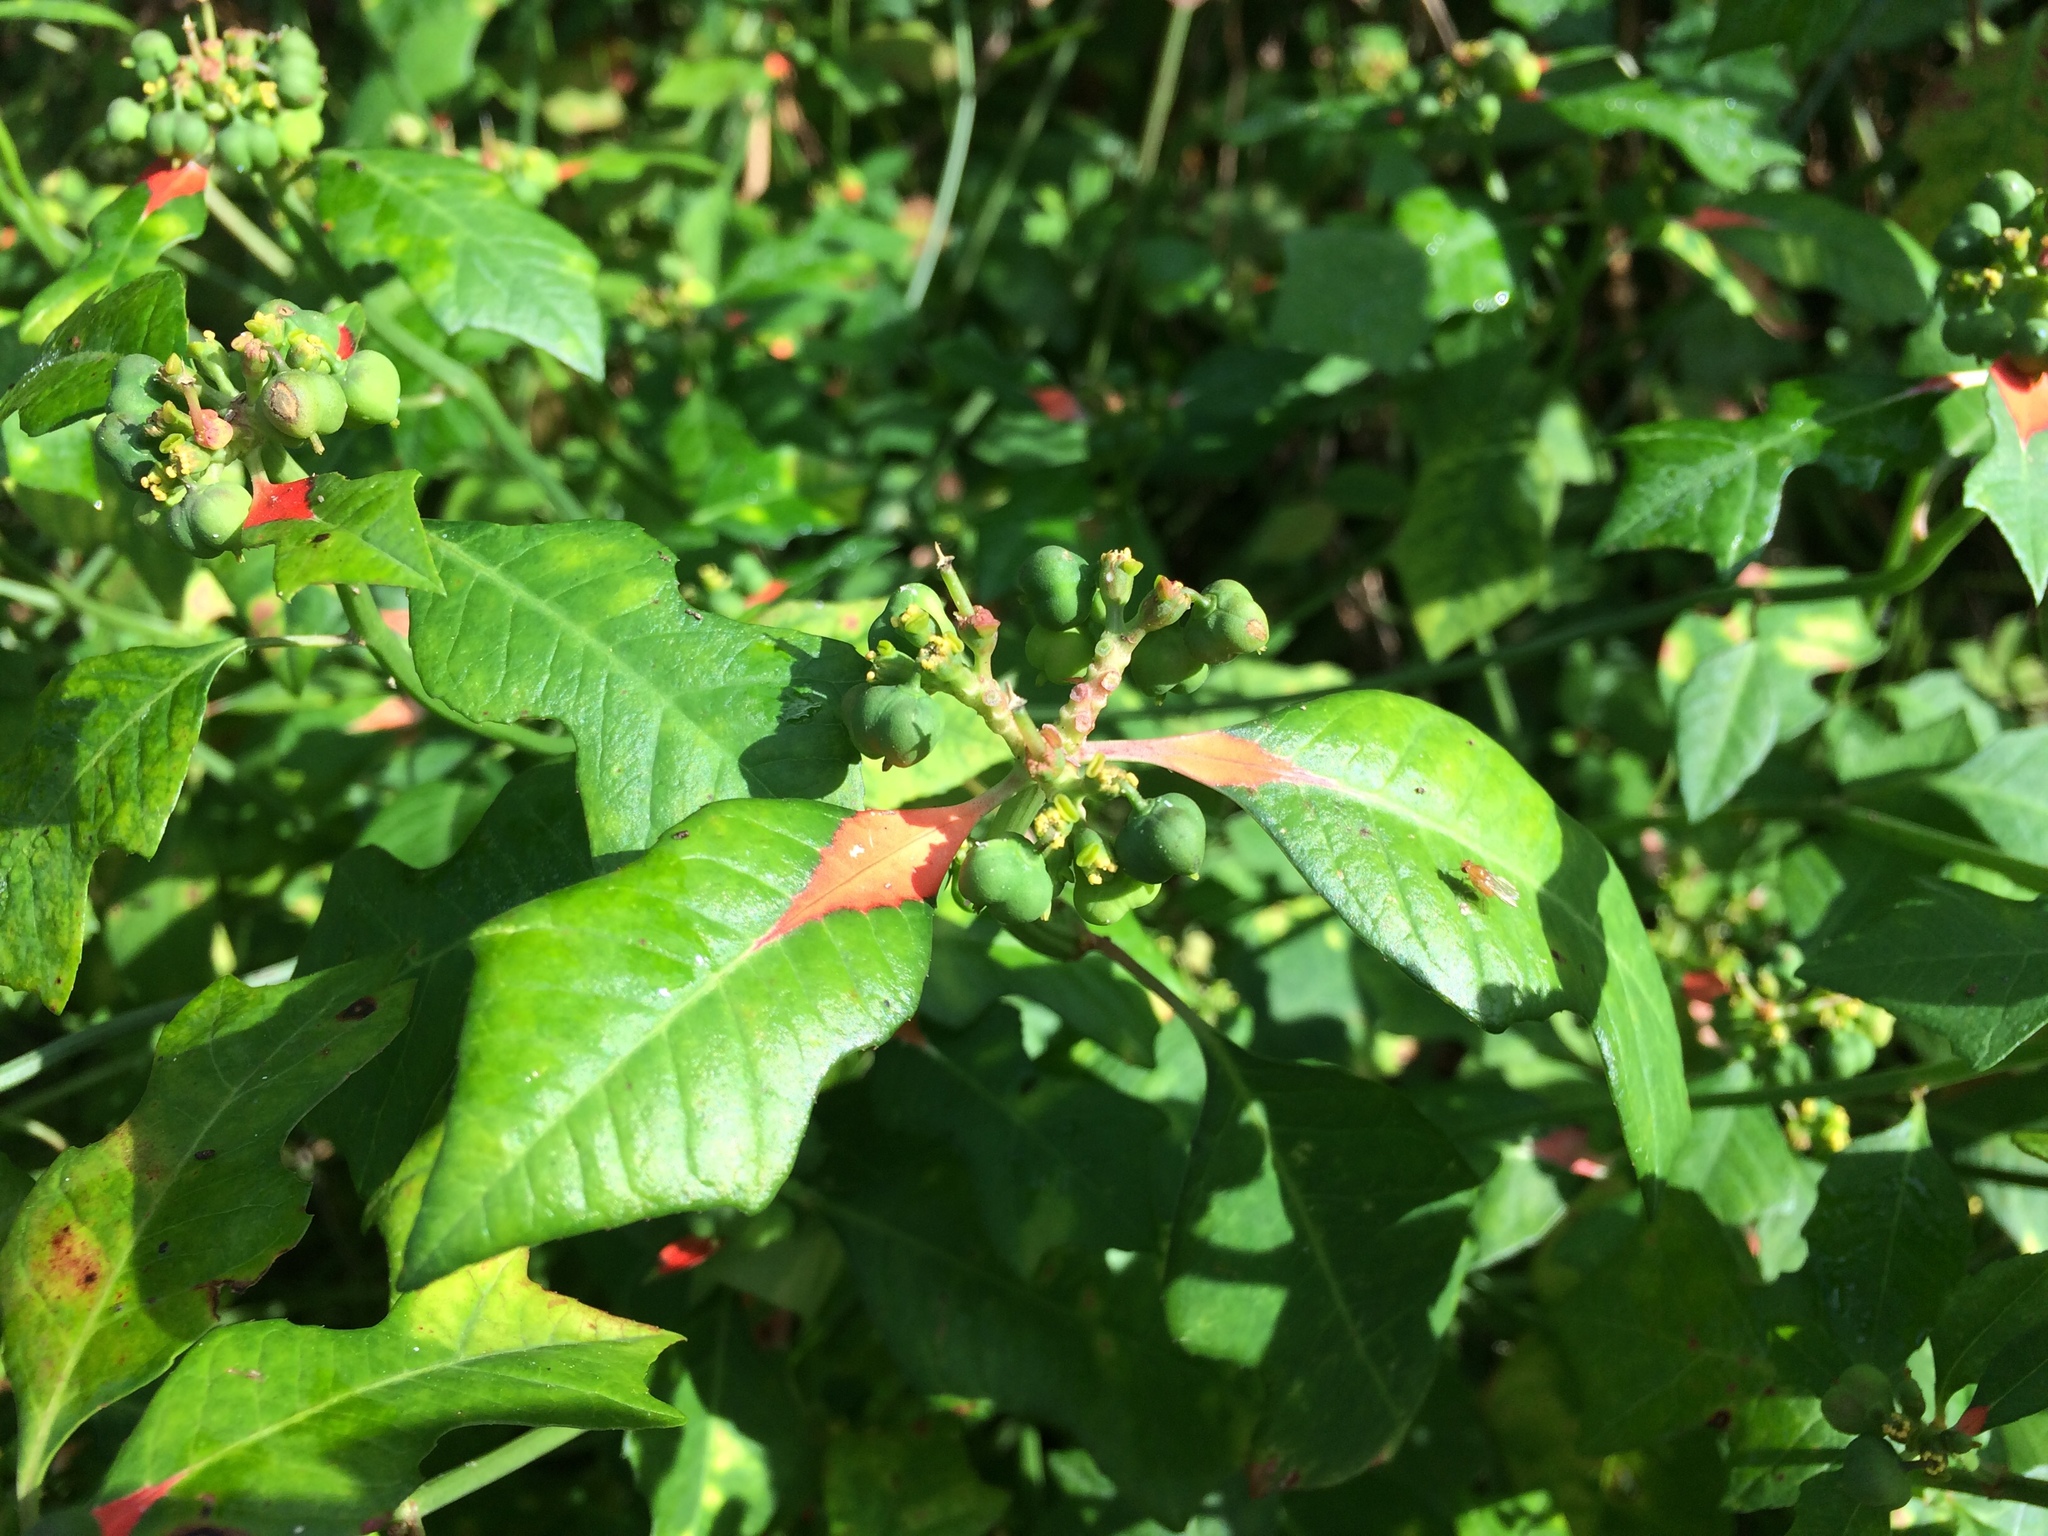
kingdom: Plantae
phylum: Tracheophyta
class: Magnoliopsida
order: Malpighiales
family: Euphorbiaceae
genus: Euphorbia
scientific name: Euphorbia heterophylla
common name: Mexican fireplant
